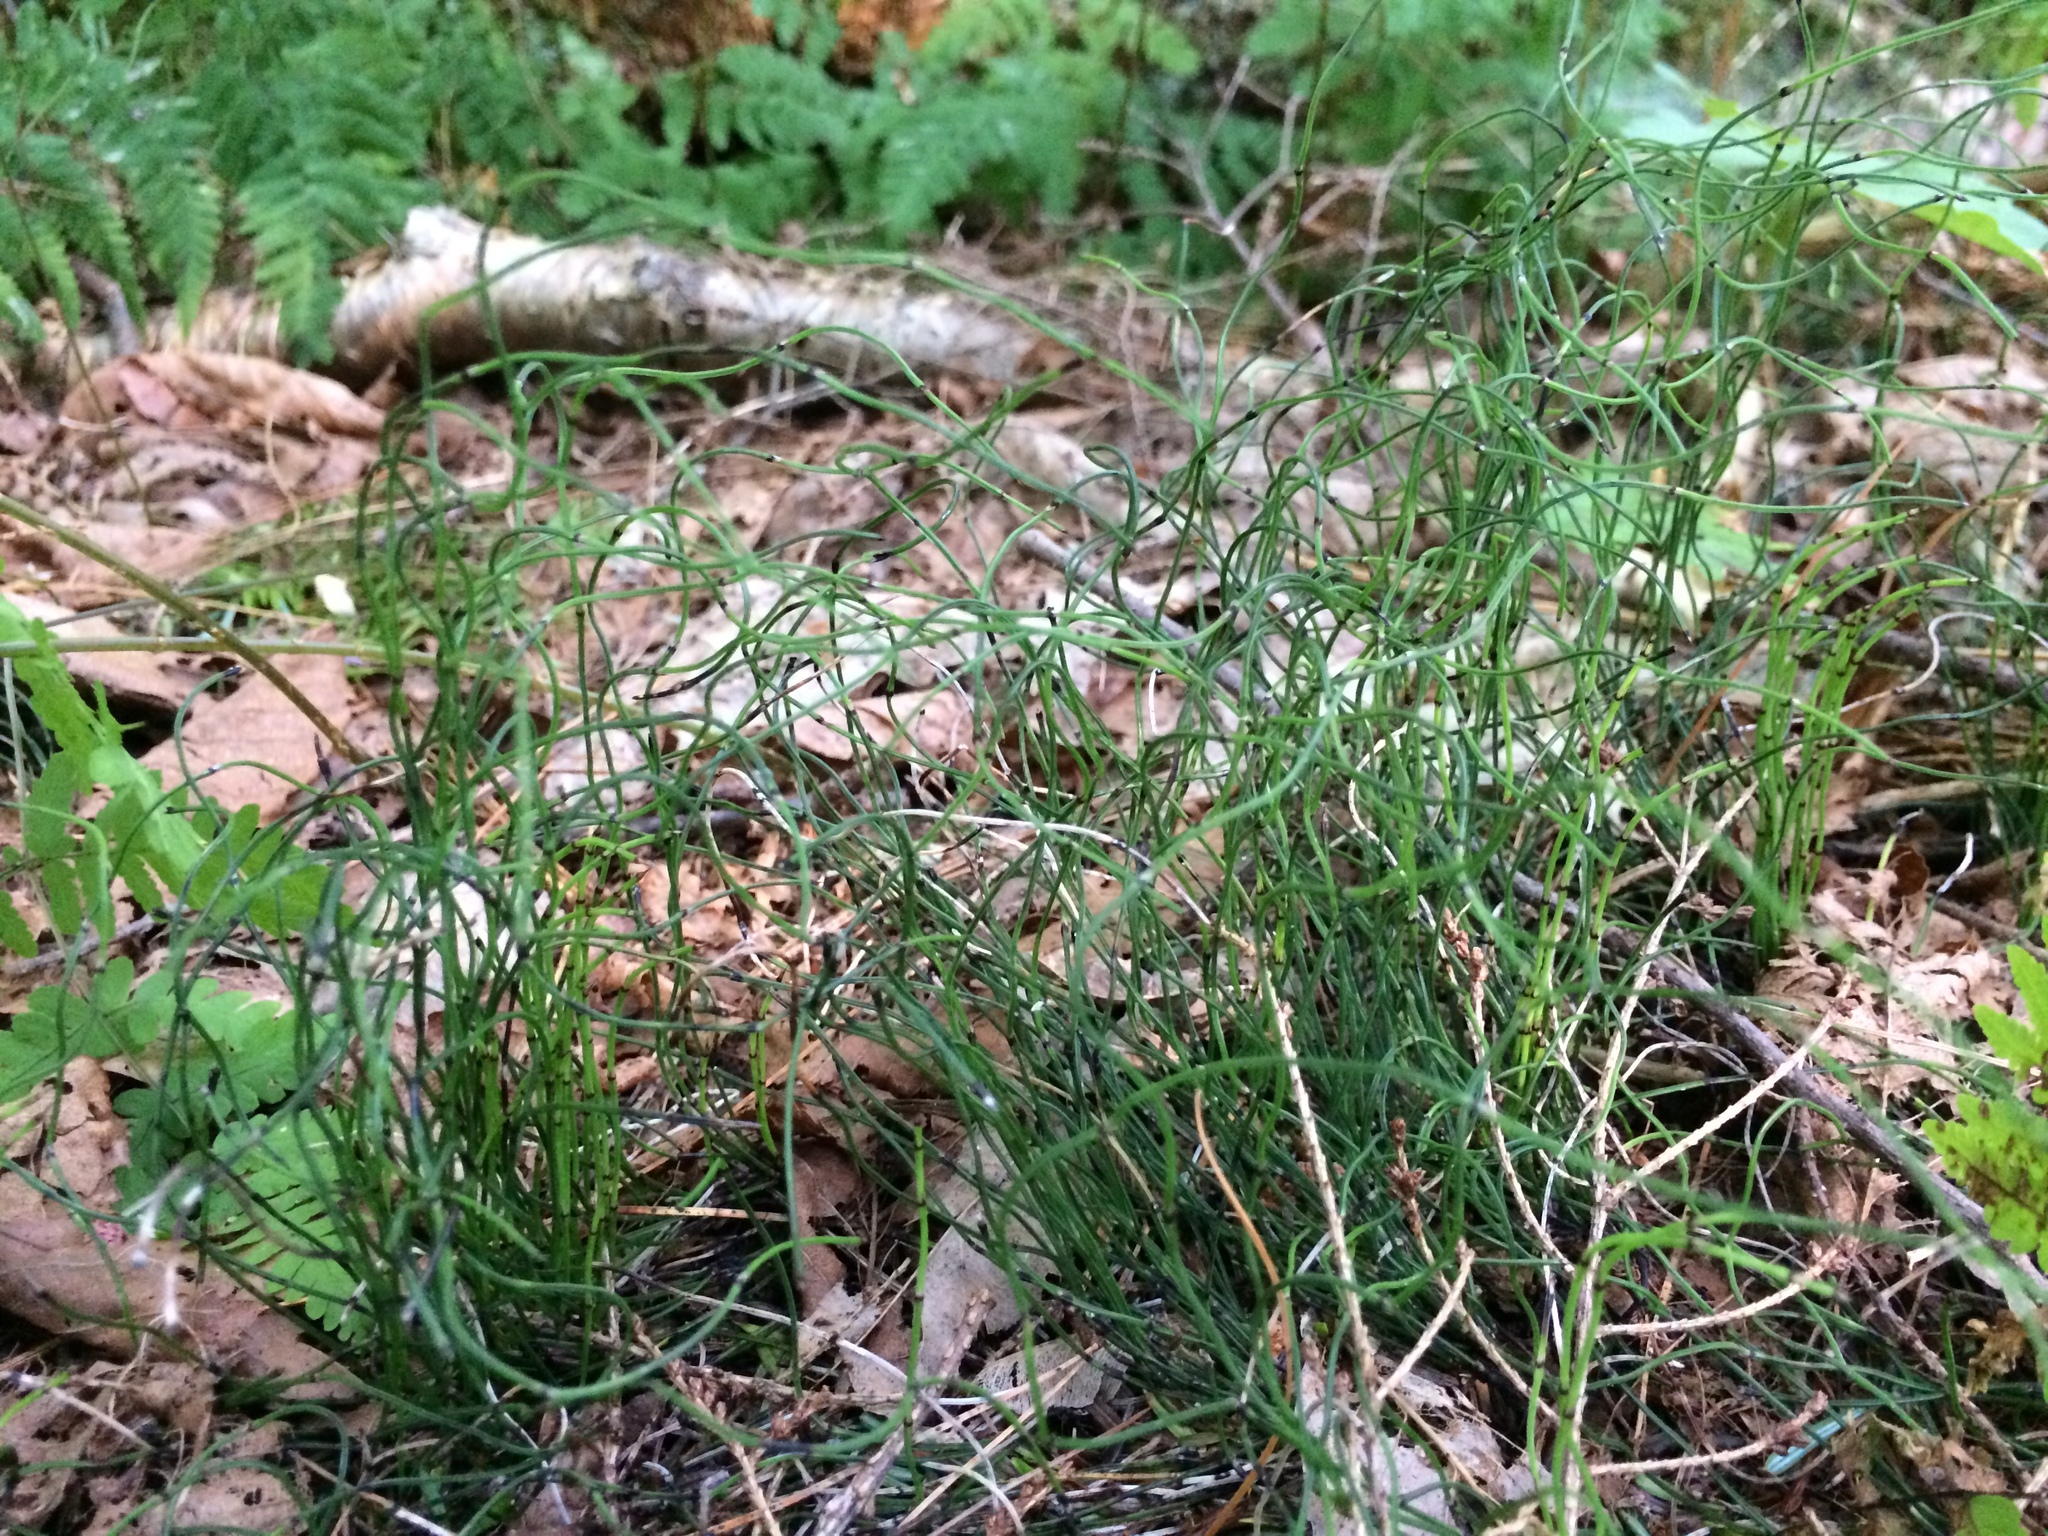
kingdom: Plantae
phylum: Tracheophyta
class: Polypodiopsida
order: Equisetales
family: Equisetaceae
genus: Equisetum
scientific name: Equisetum scirpoides
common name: Delicate horsetail
